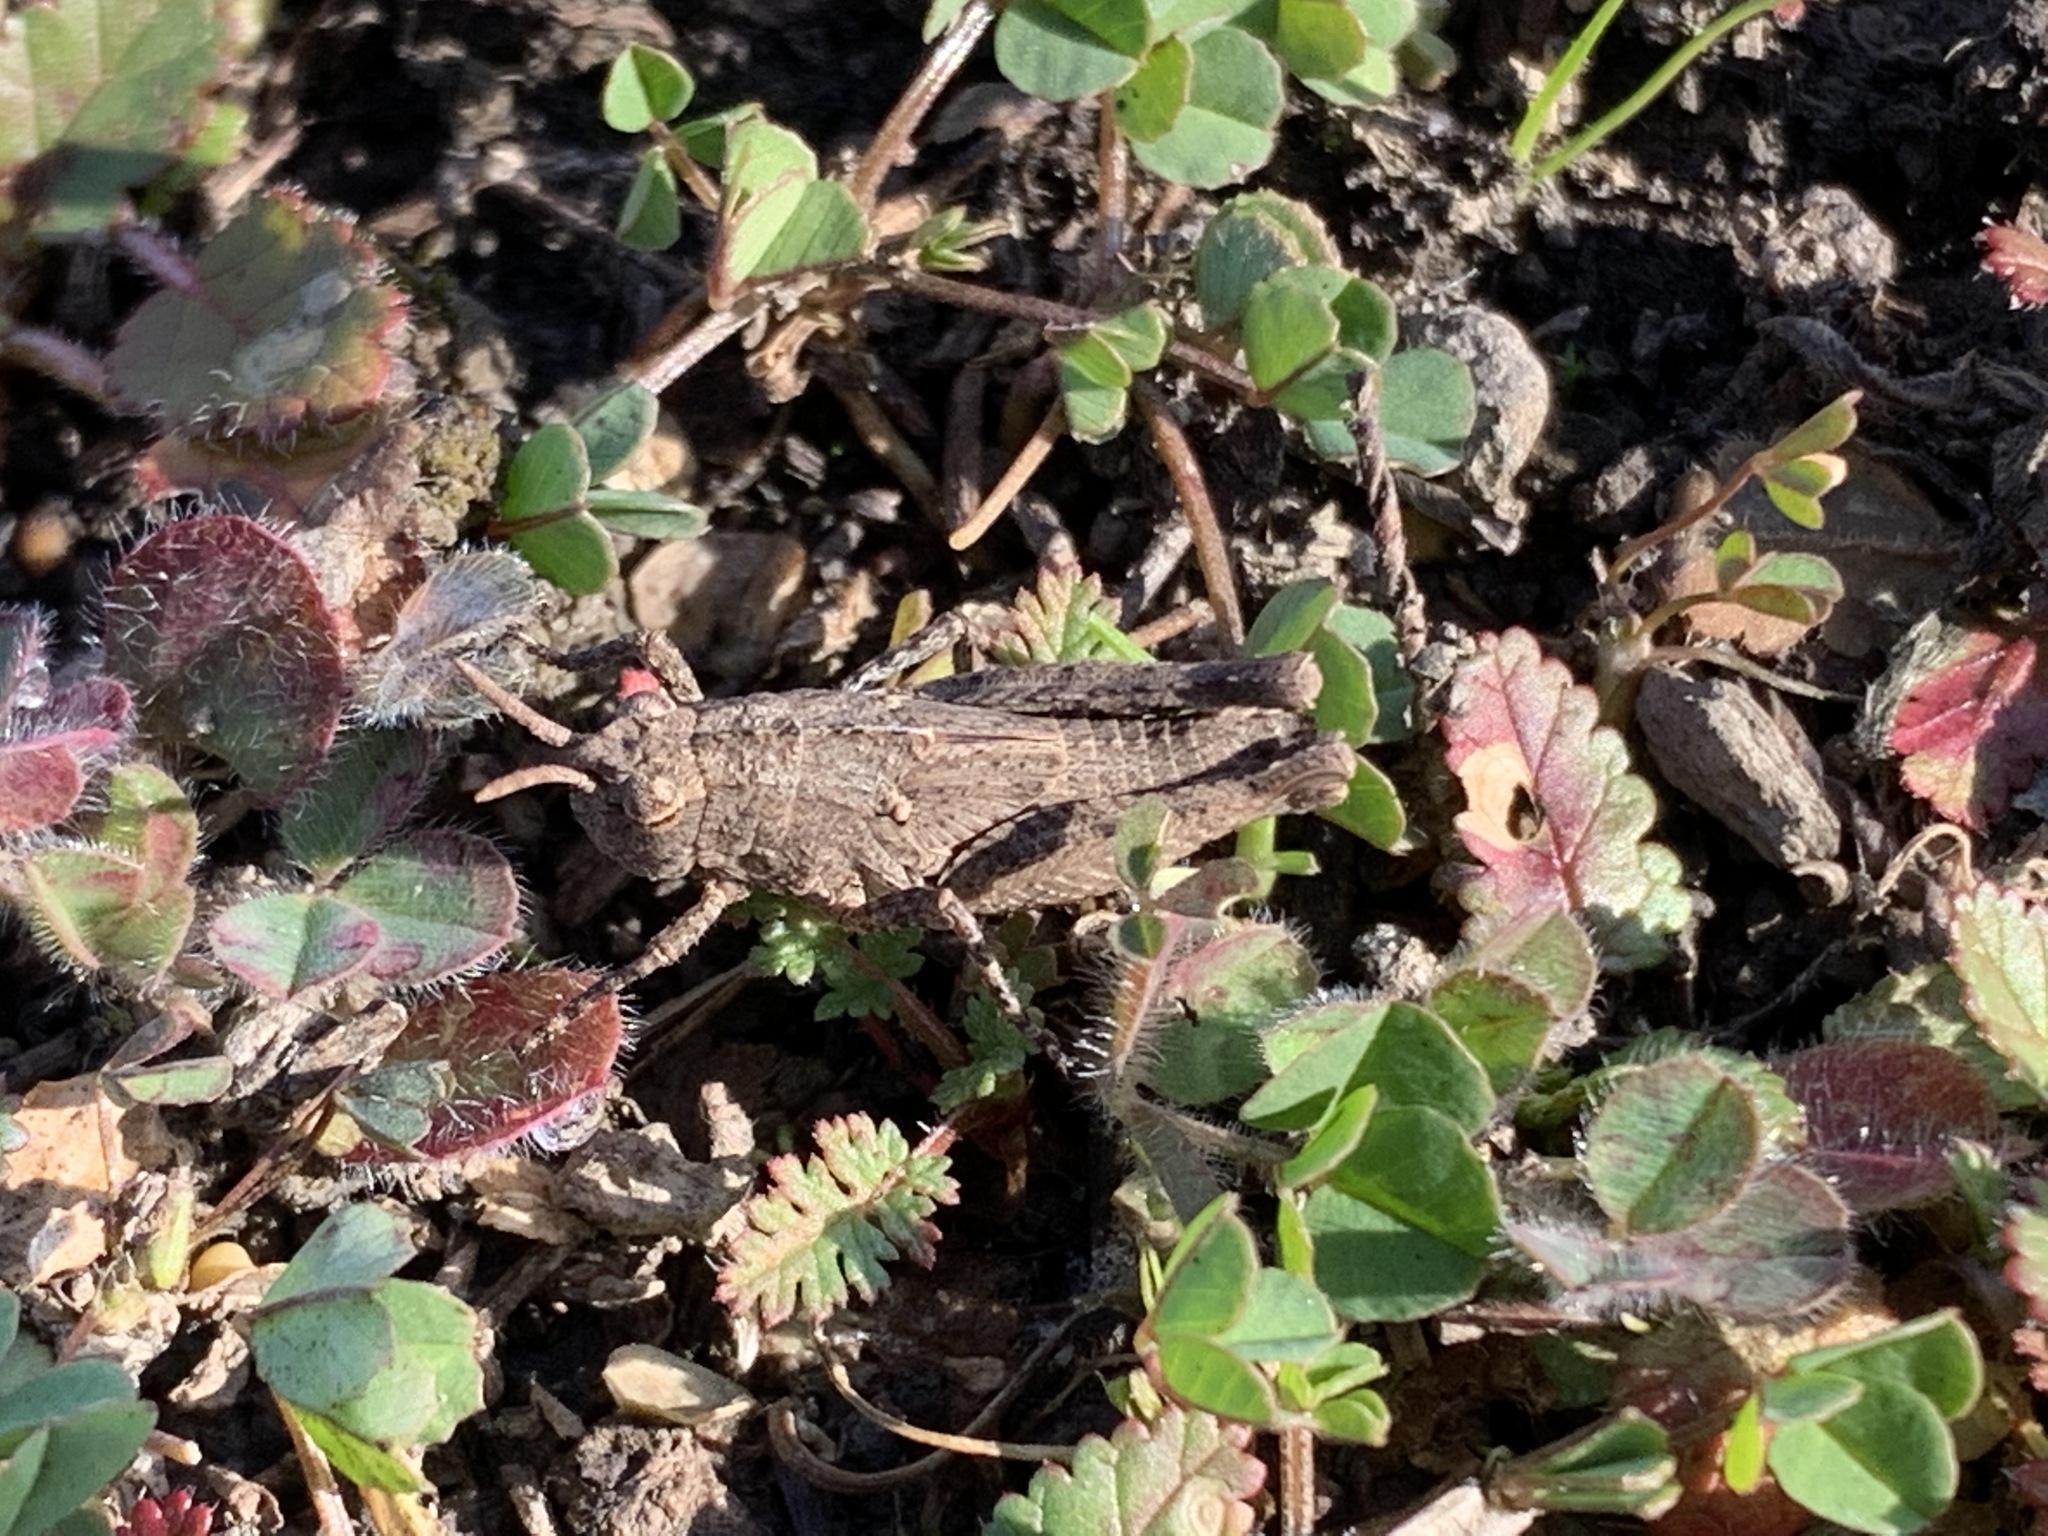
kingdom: Animalia
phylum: Arthropoda
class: Insecta
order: Orthoptera
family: Acrididae
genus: Chimarocephala
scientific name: Chimarocephala pacifica
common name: Painted meadow grasshopper
